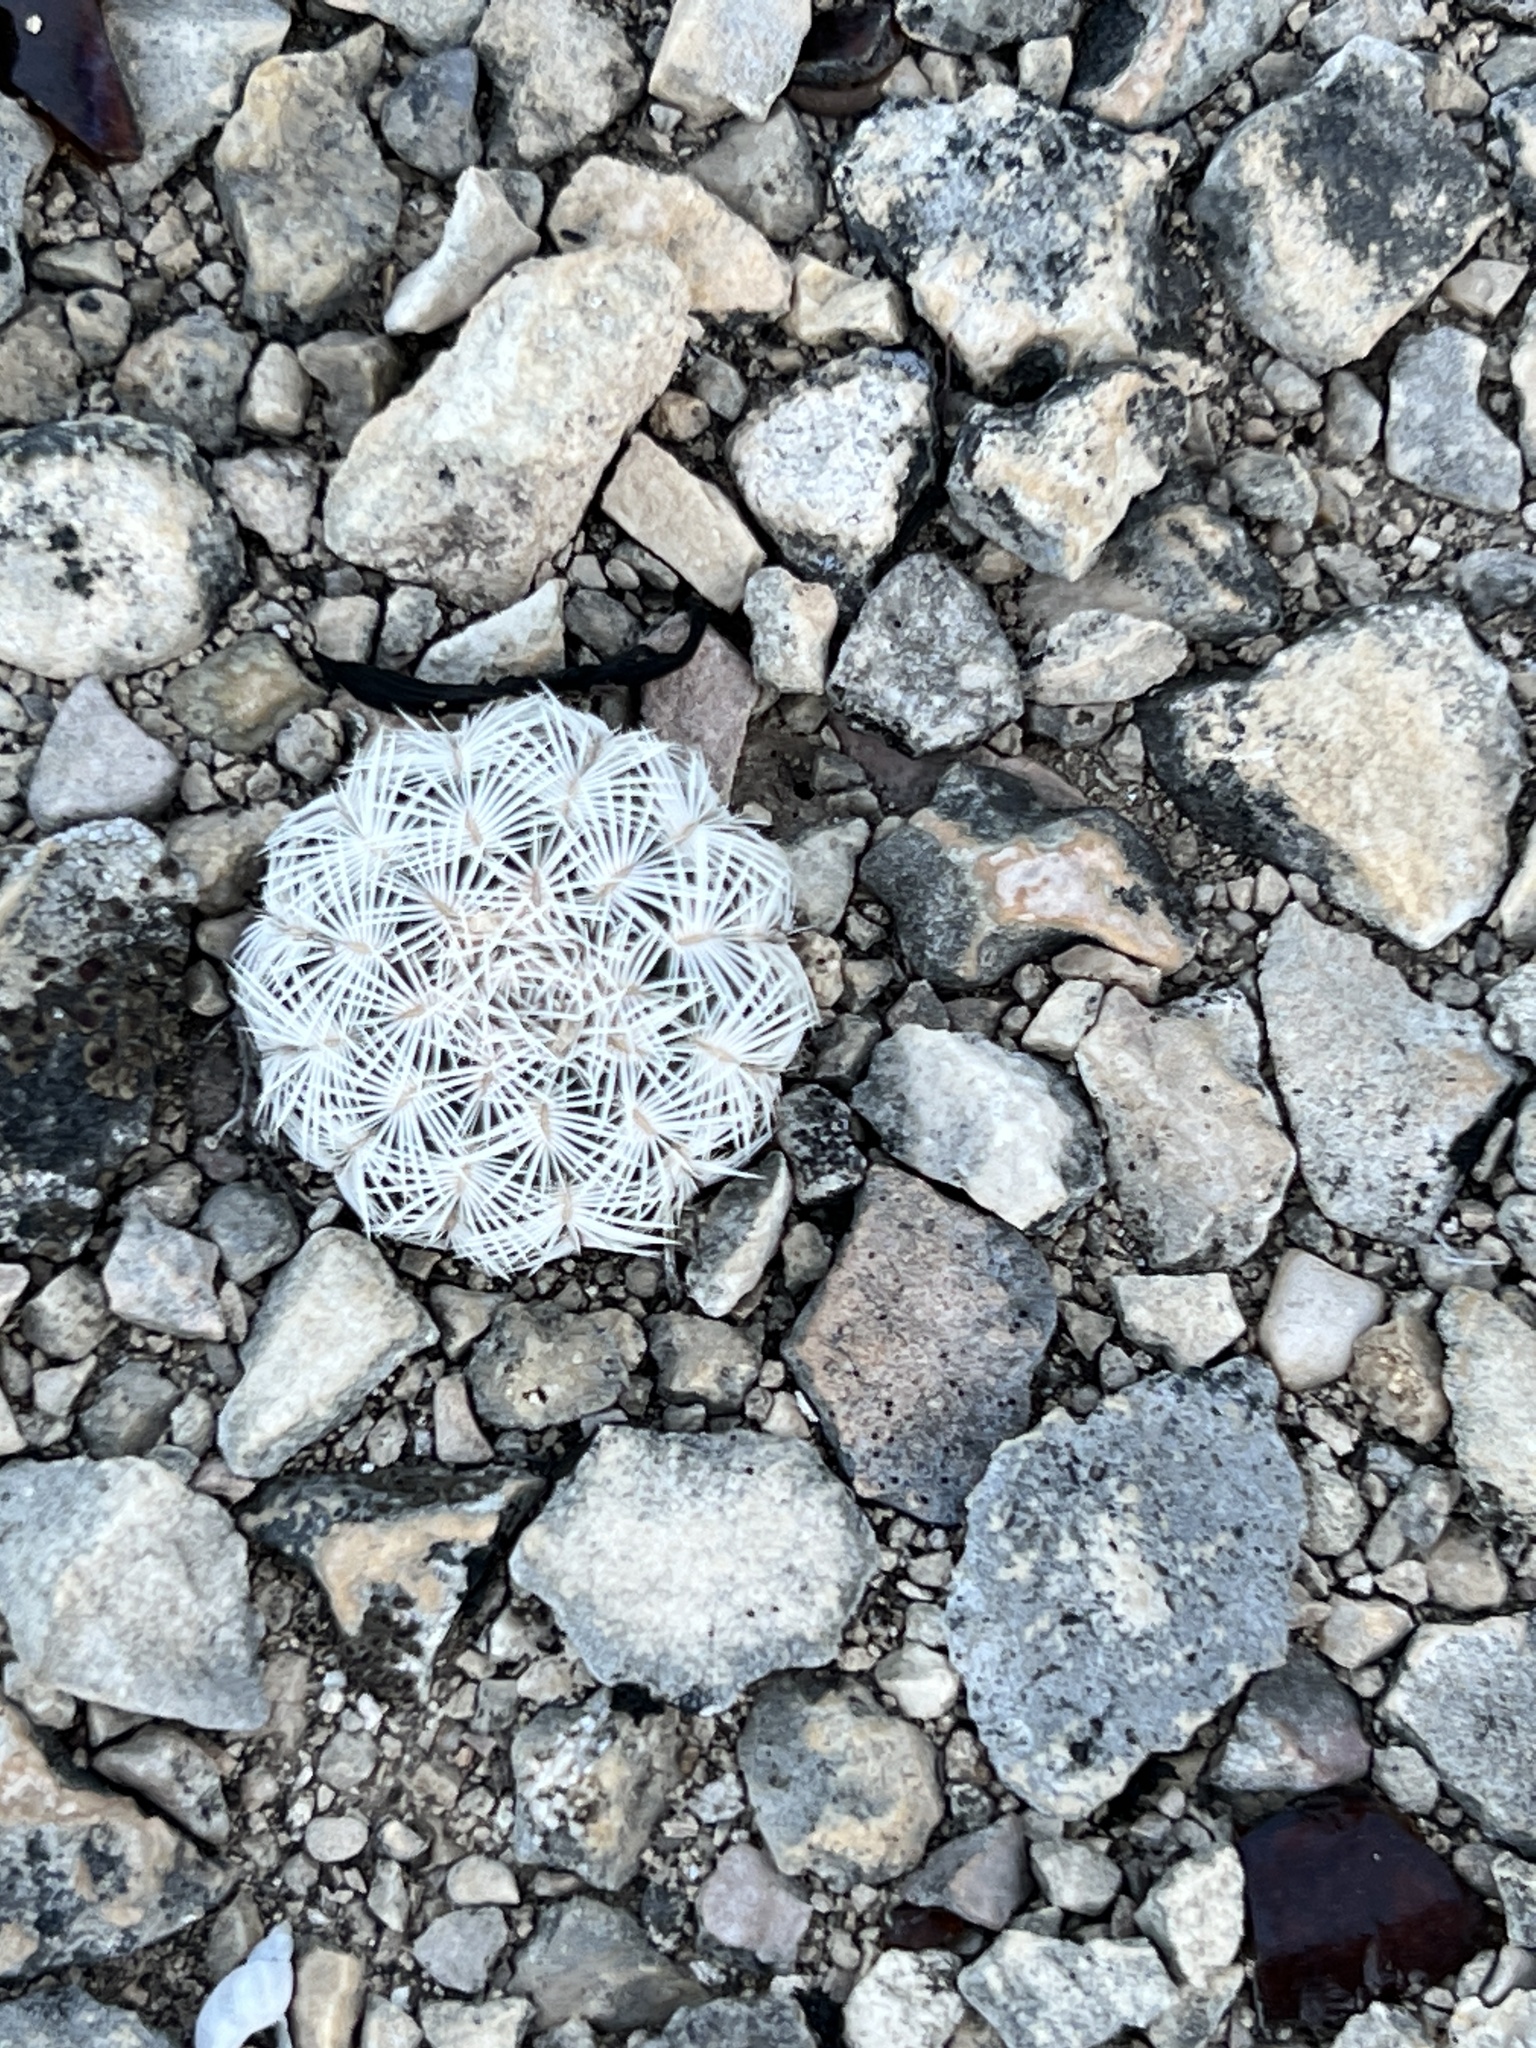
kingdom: Plantae
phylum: Tracheophyta
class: Magnoliopsida
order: Caryophyllales
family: Cactaceae
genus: Echinocereus
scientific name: Echinocereus reichenbachii
